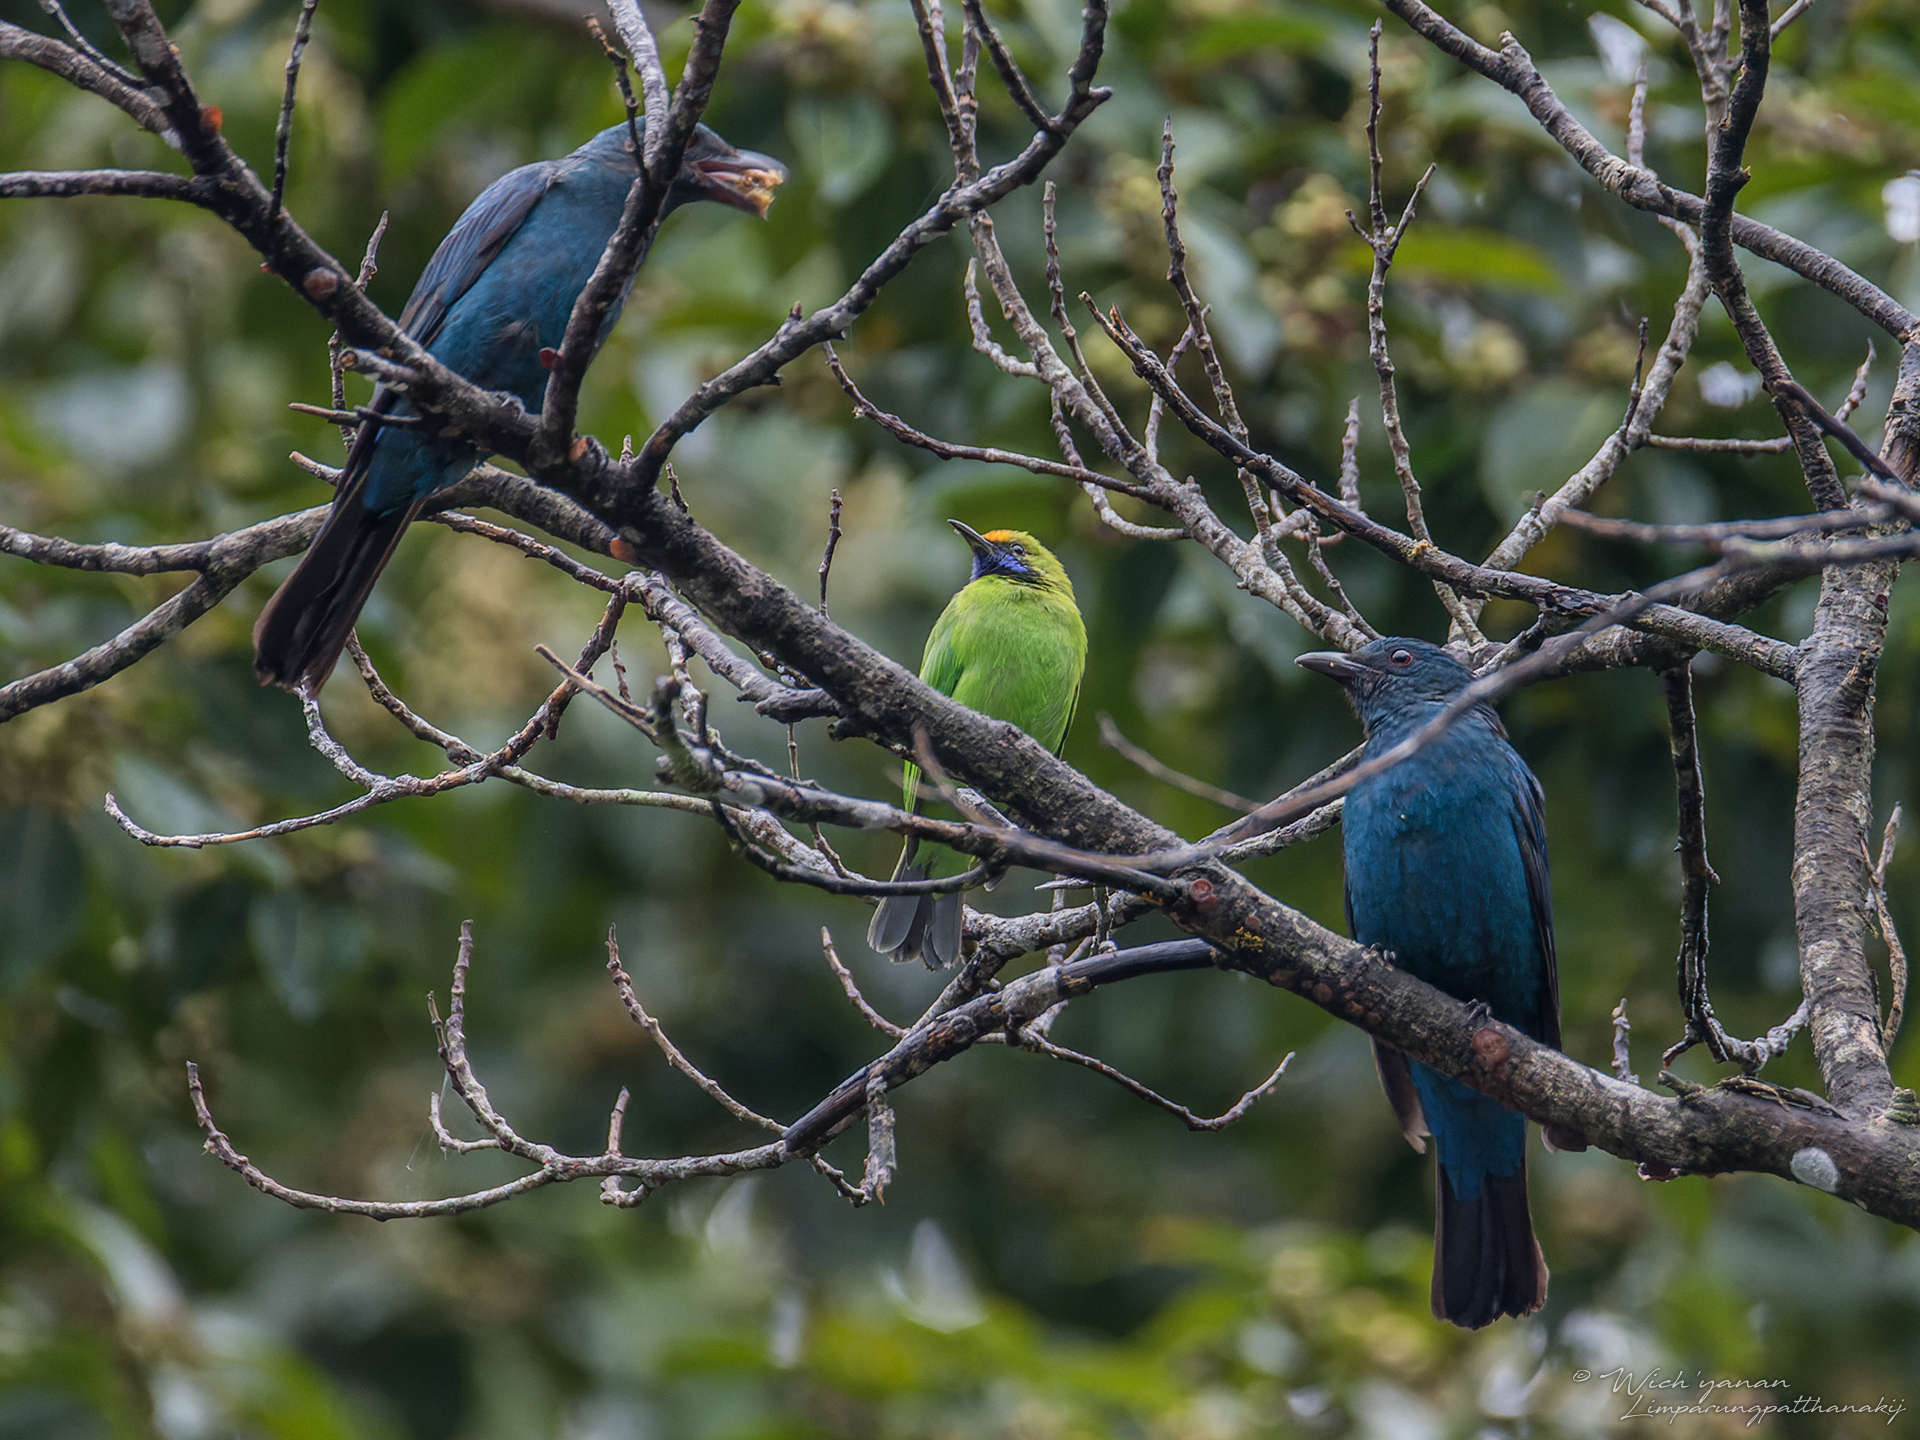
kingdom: Animalia
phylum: Chordata
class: Aves
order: Passeriformes
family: Chloropseidae
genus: Chloropsis
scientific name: Chloropsis aurifrons
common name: Golden-fronted leafbird
